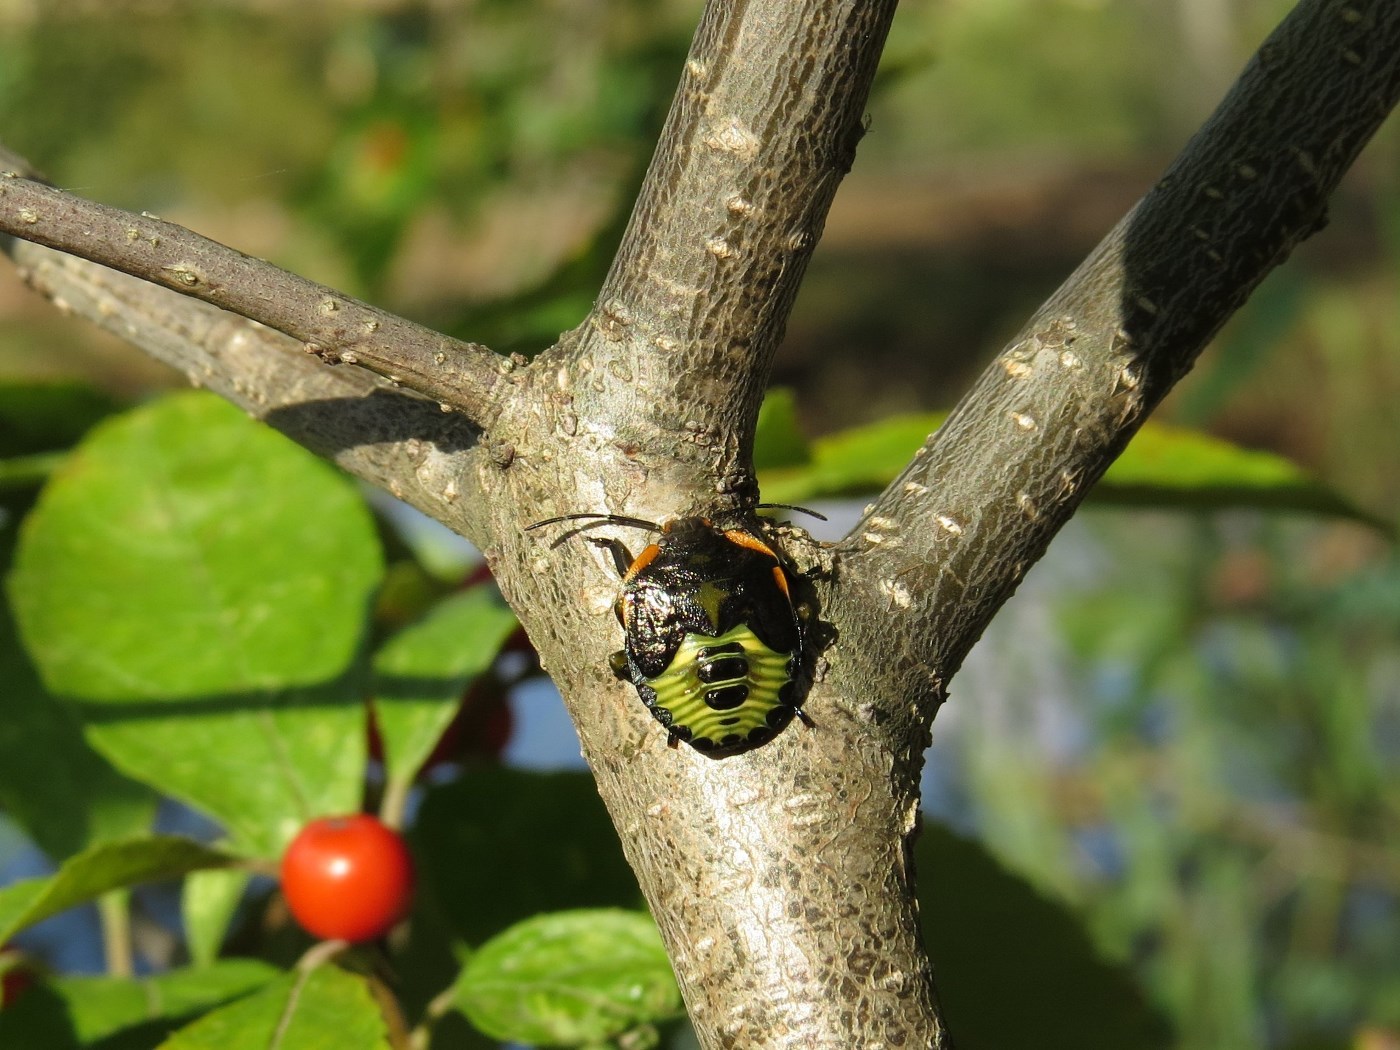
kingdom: Animalia
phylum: Arthropoda
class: Insecta
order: Hemiptera
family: Pentatomidae
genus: Chinavia
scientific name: Chinavia hilaris
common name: Green stink bug
